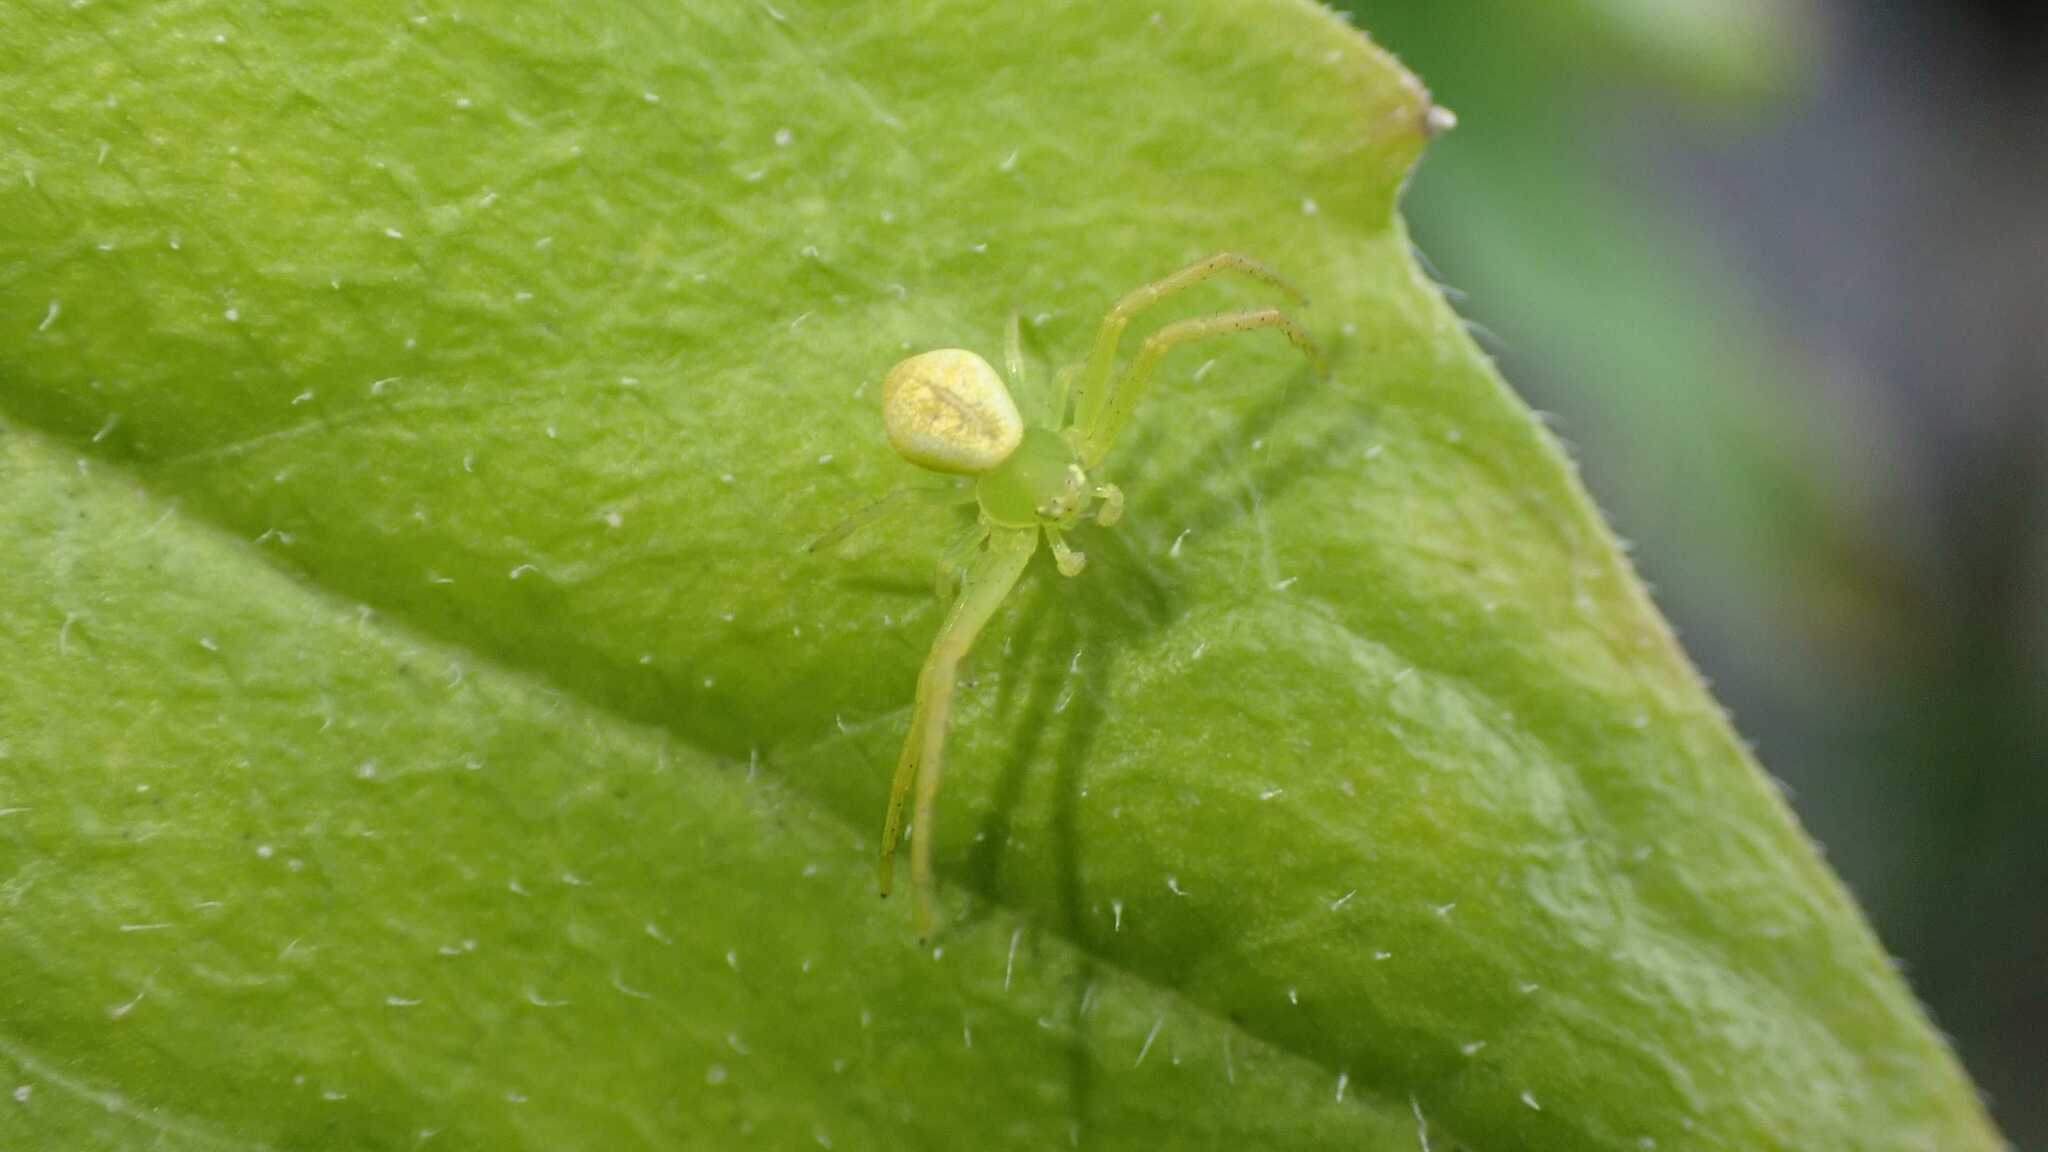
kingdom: Animalia
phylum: Arthropoda
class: Arachnida
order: Araneae
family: Thomisidae
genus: Ebrechtella
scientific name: Ebrechtella tricuspidata
